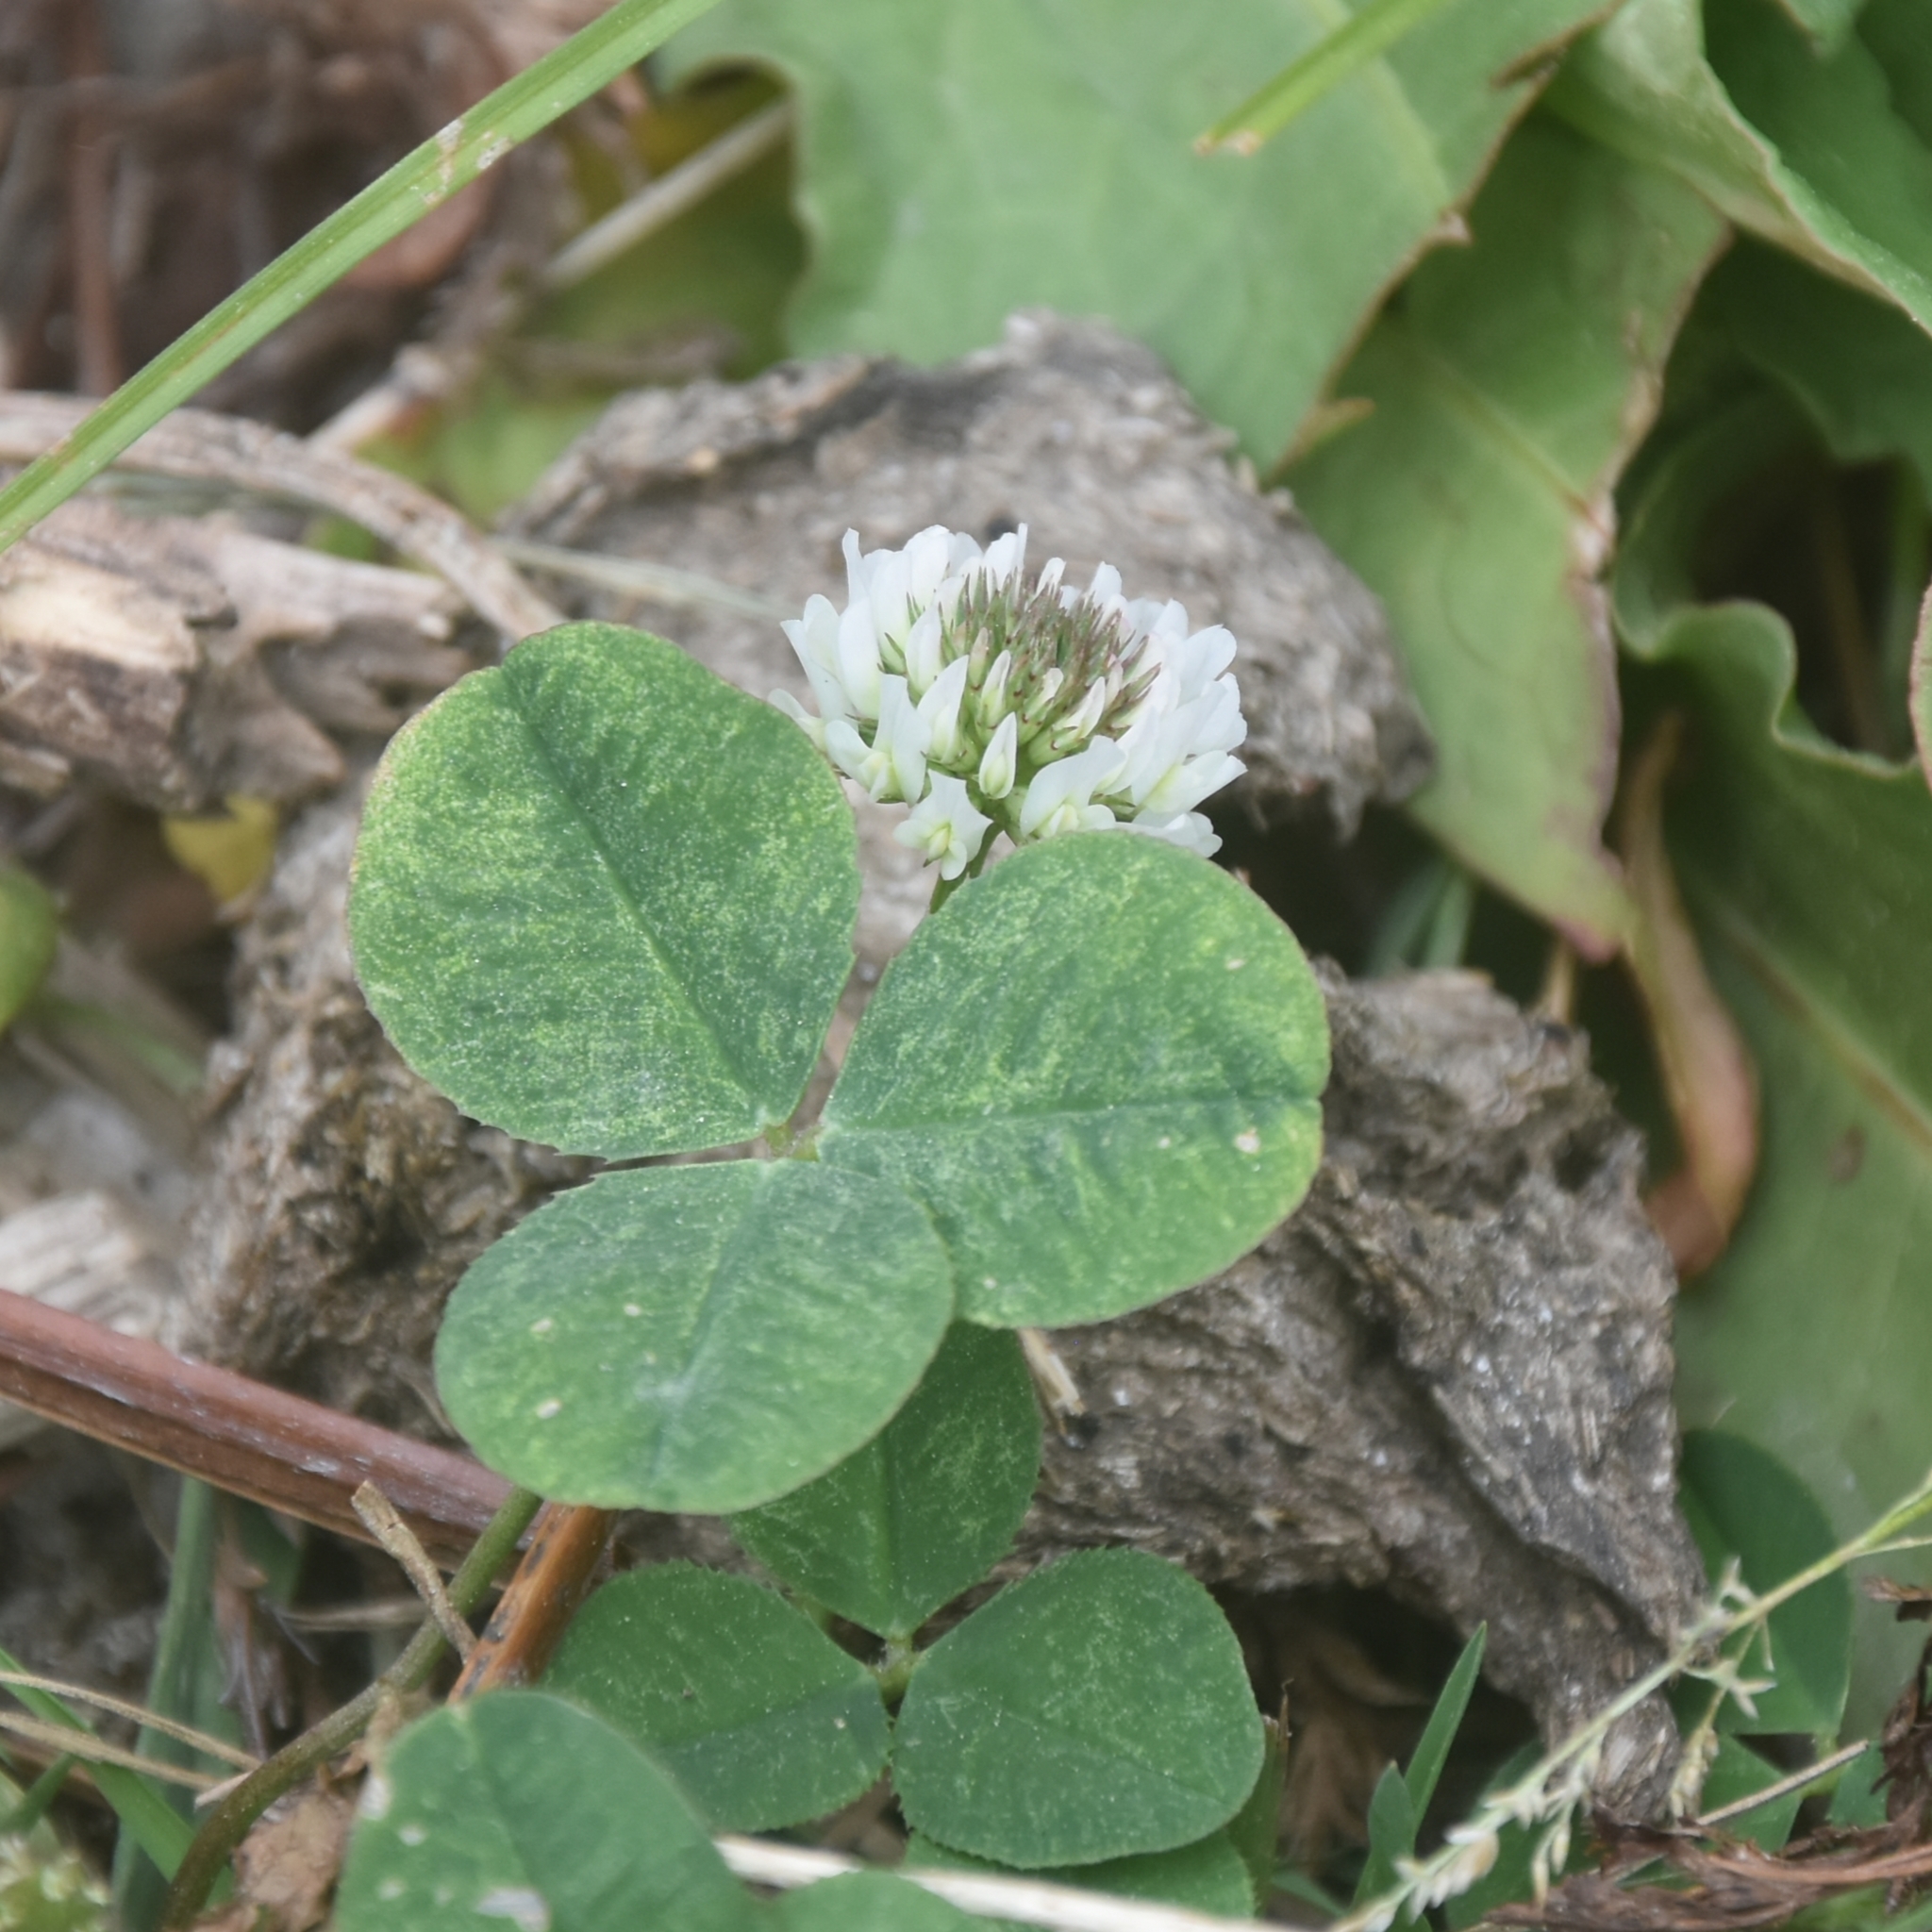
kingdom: Plantae
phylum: Tracheophyta
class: Magnoliopsida
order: Fabales
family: Fabaceae
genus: Trifolium
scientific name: Trifolium repens
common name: White clover
